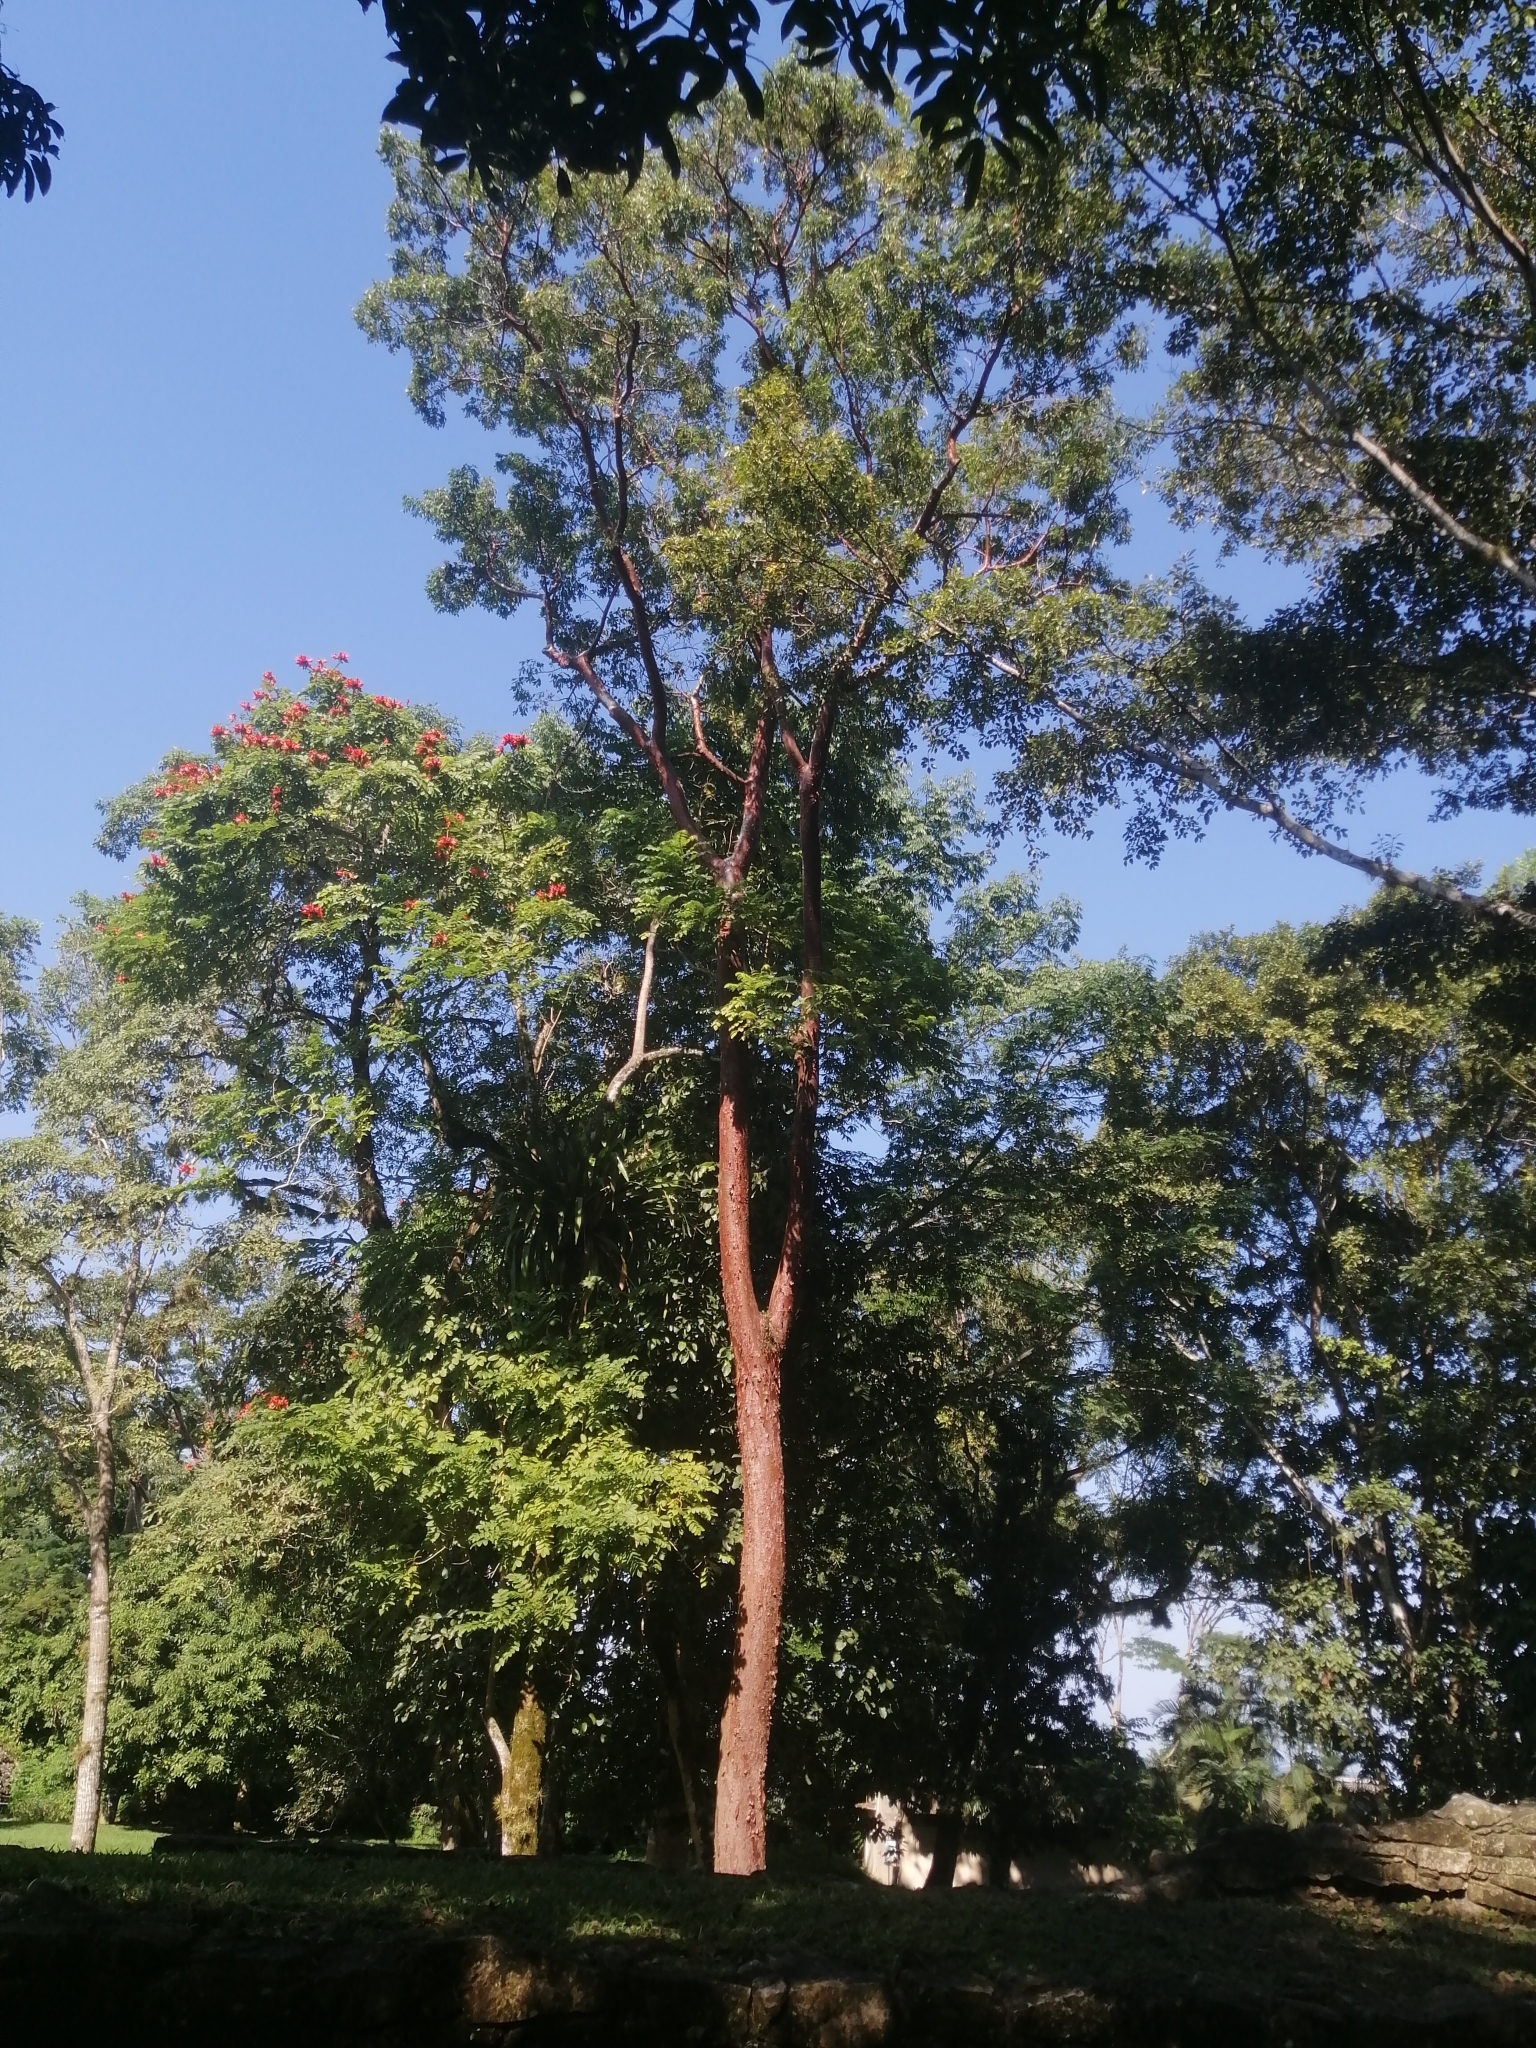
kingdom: Plantae
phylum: Tracheophyta
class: Magnoliopsida
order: Sapindales
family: Burseraceae
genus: Bursera
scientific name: Bursera simaruba
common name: Turpentine tree
